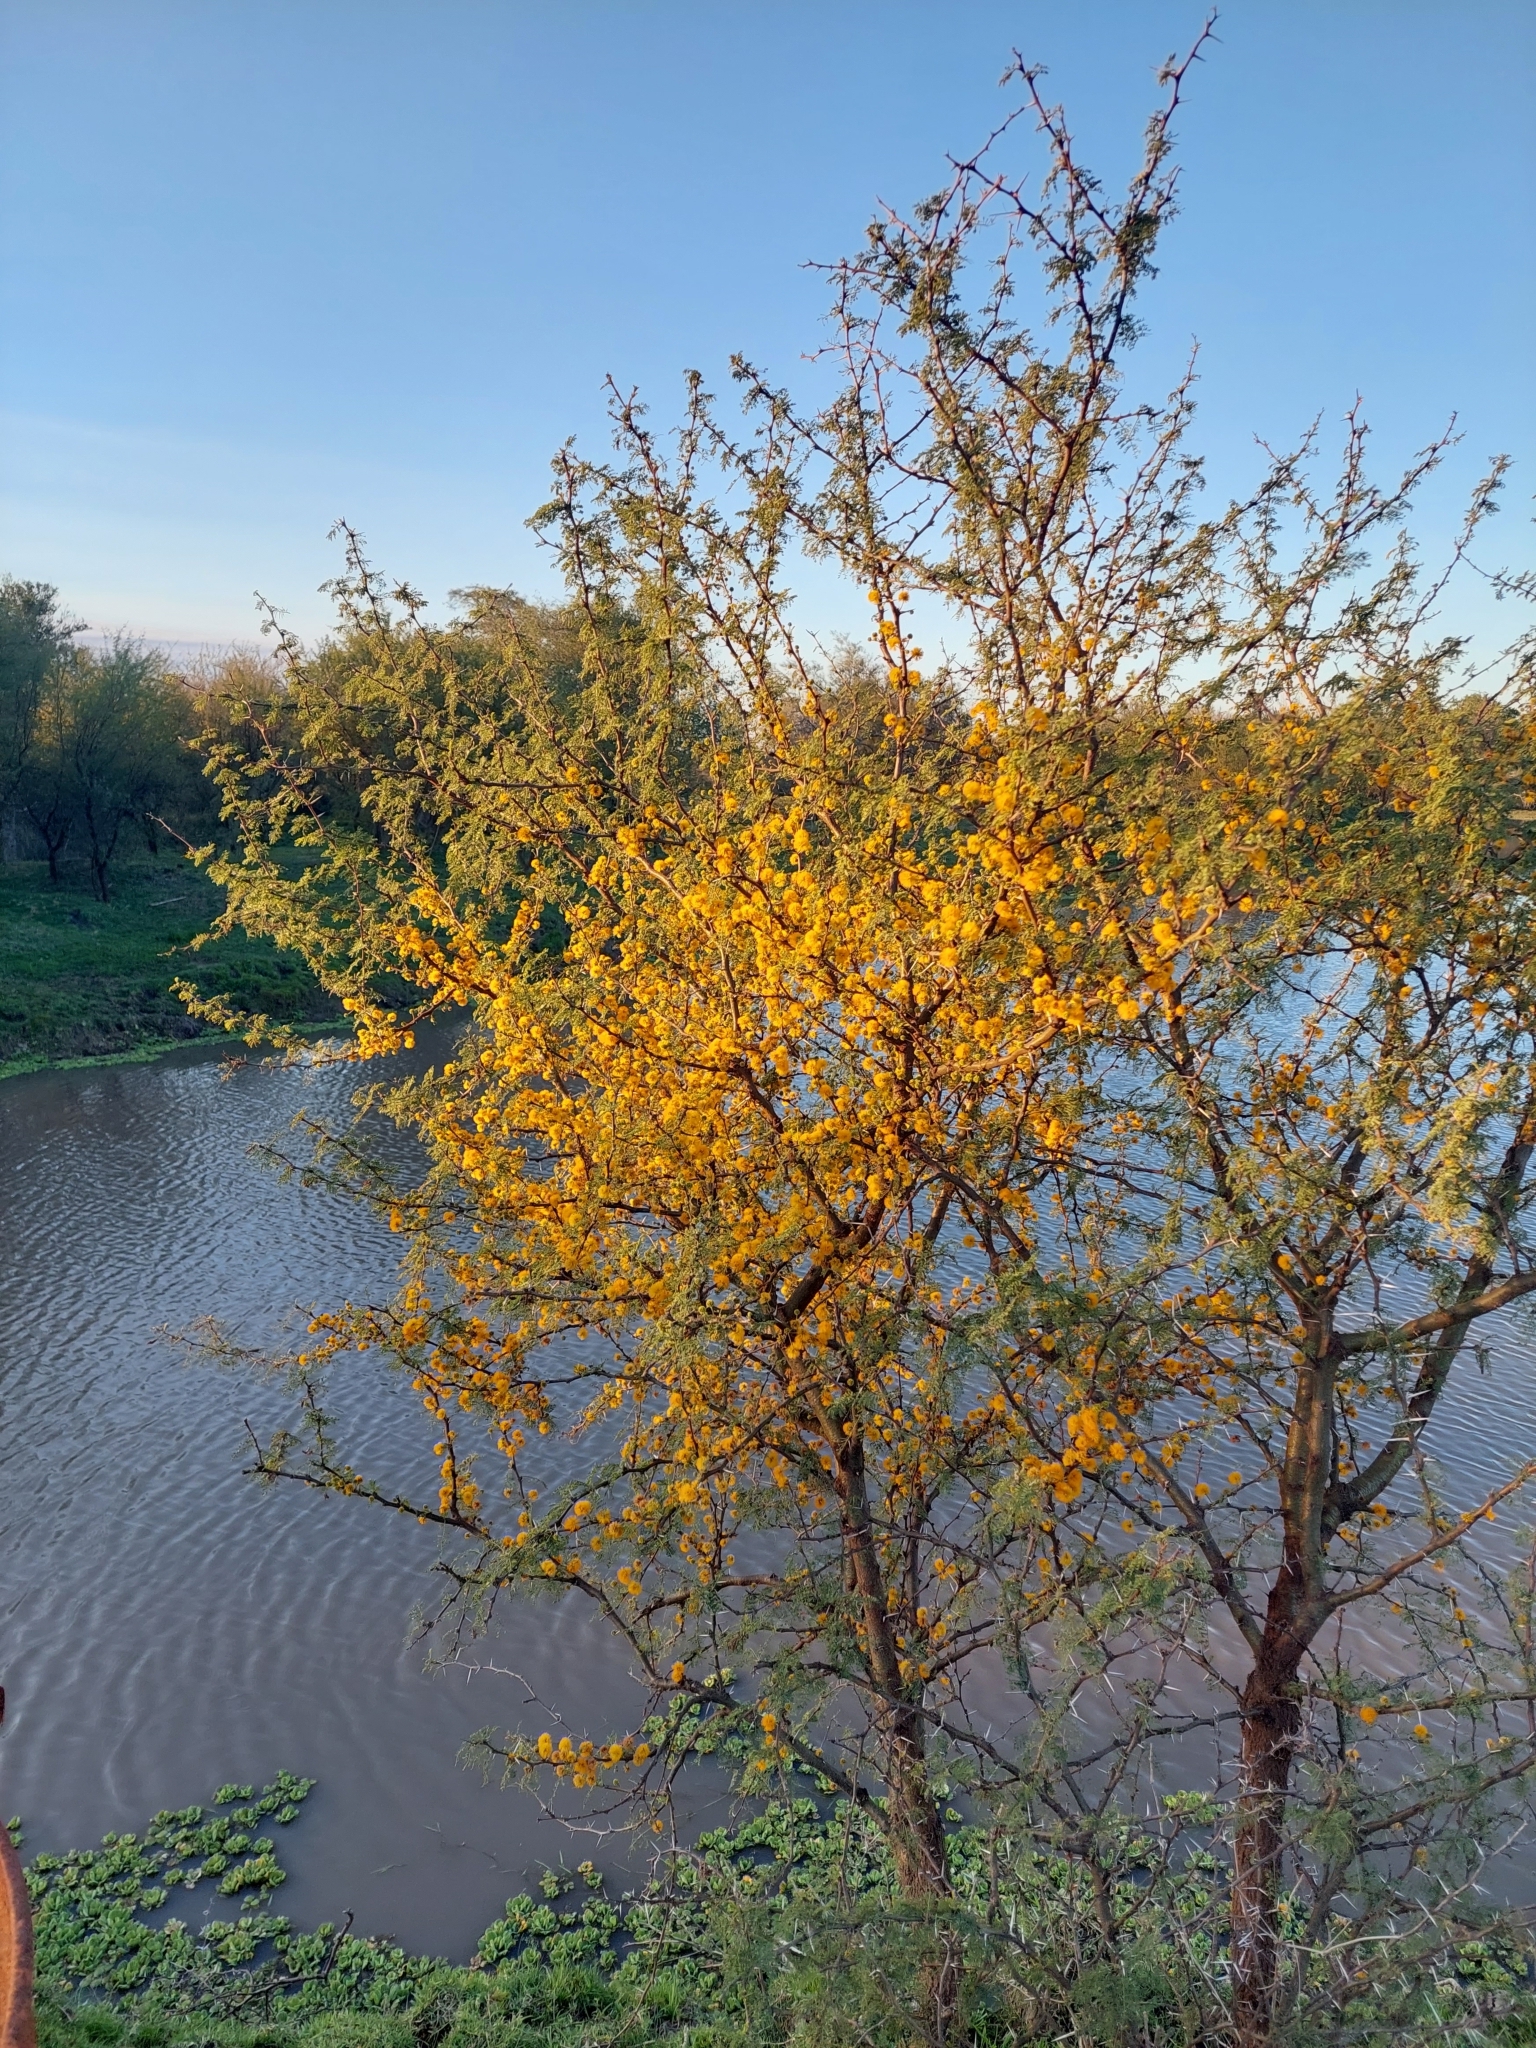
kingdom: Plantae
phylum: Tracheophyta
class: Magnoliopsida
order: Fabales
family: Fabaceae
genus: Vachellia
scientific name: Vachellia caven
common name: Roman cassie
